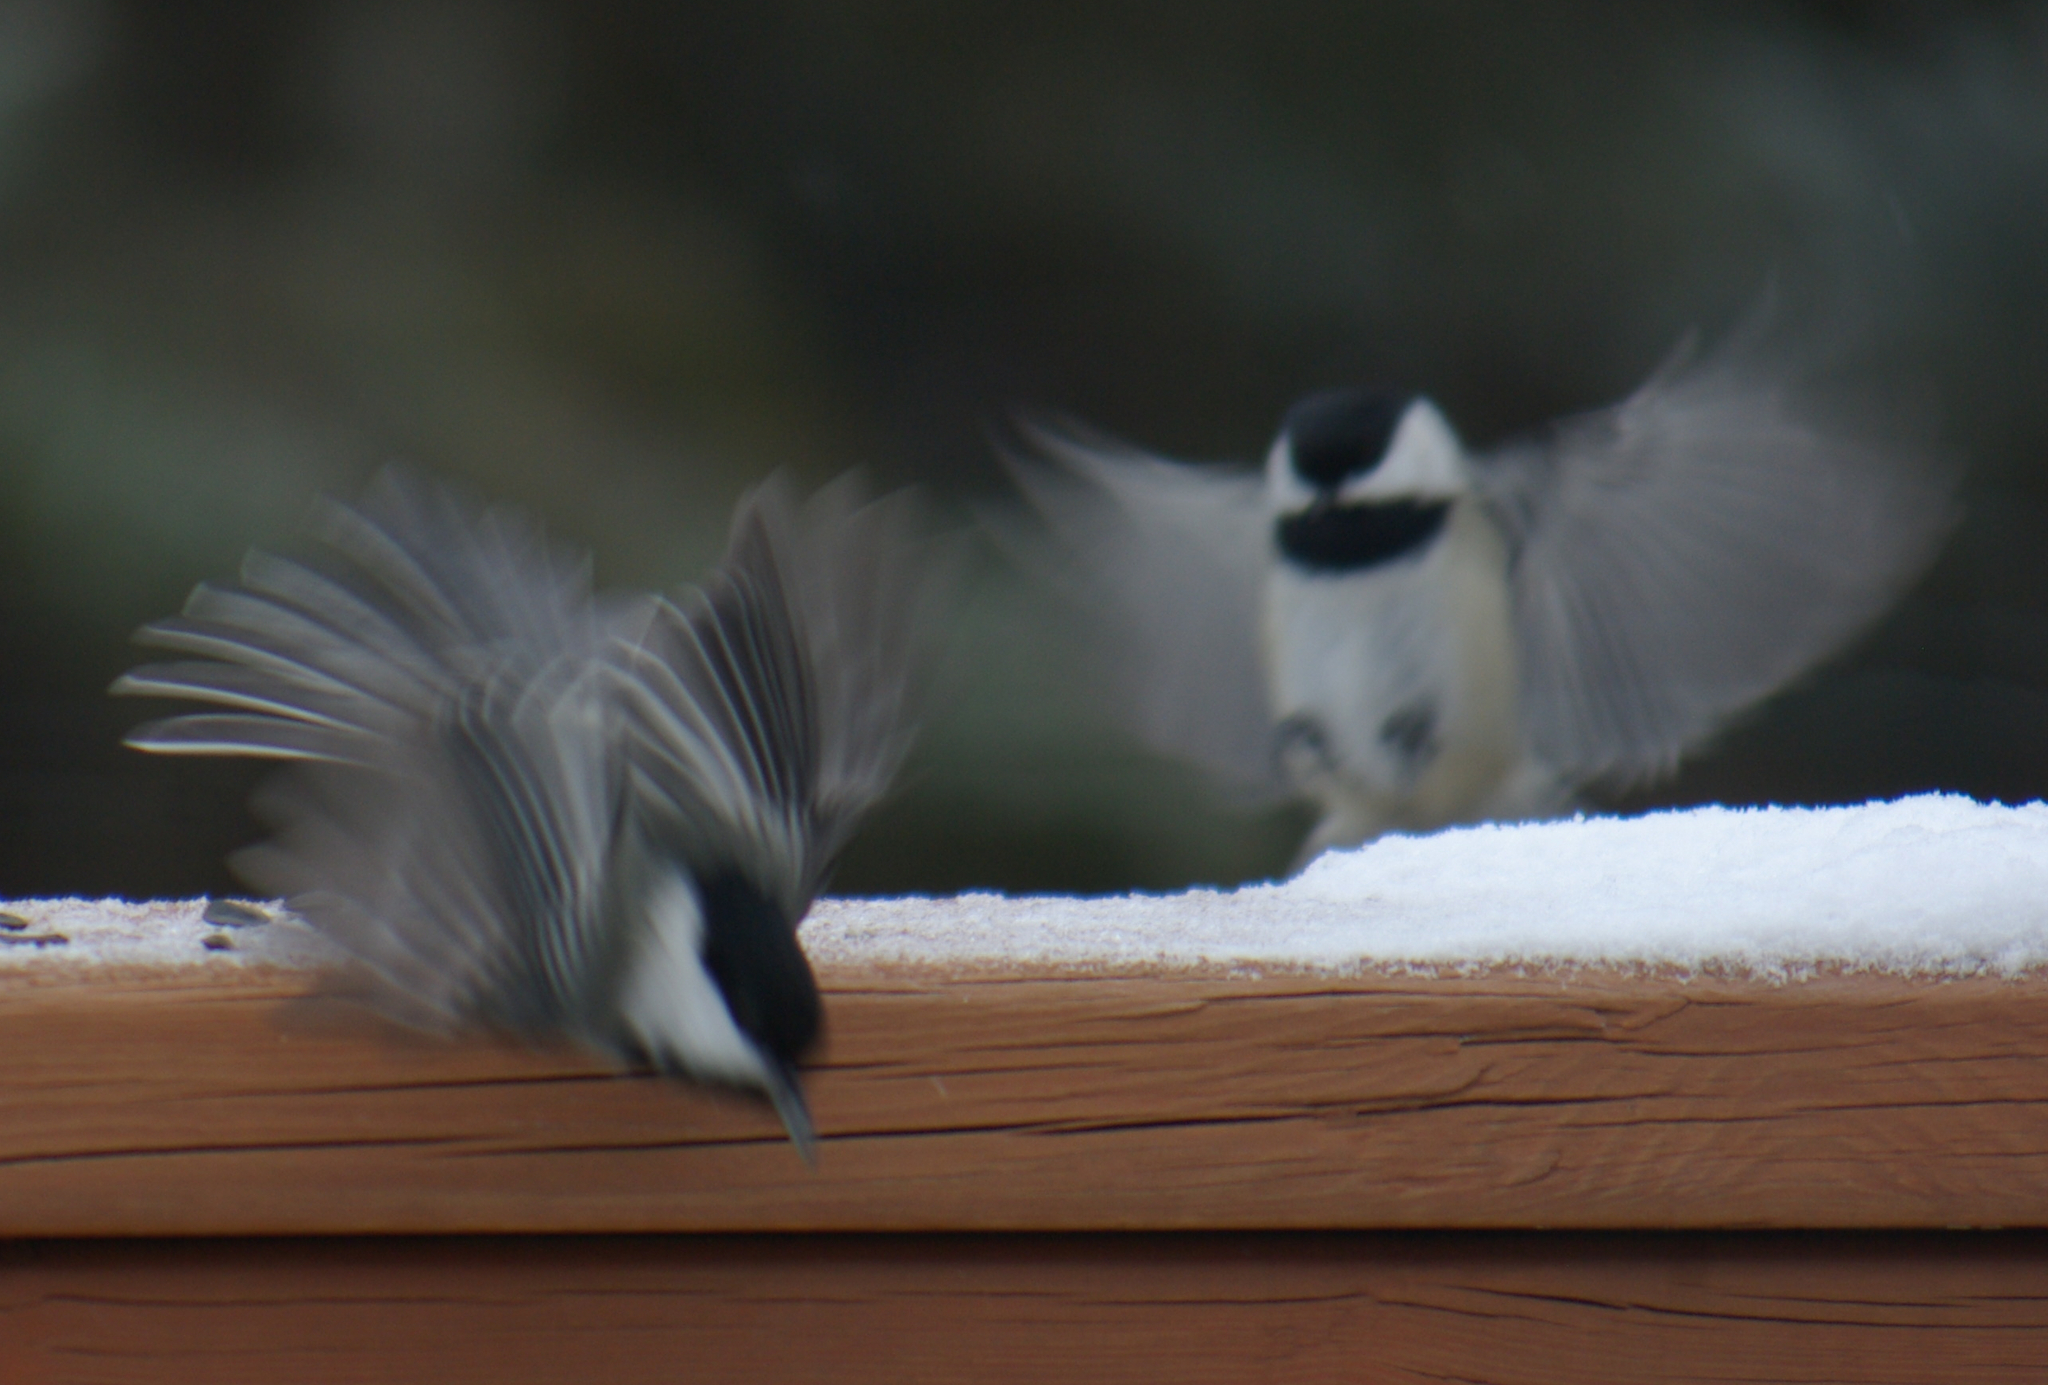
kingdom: Animalia
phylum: Chordata
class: Aves
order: Passeriformes
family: Paridae
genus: Poecile
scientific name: Poecile atricapillus
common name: Black-capped chickadee
